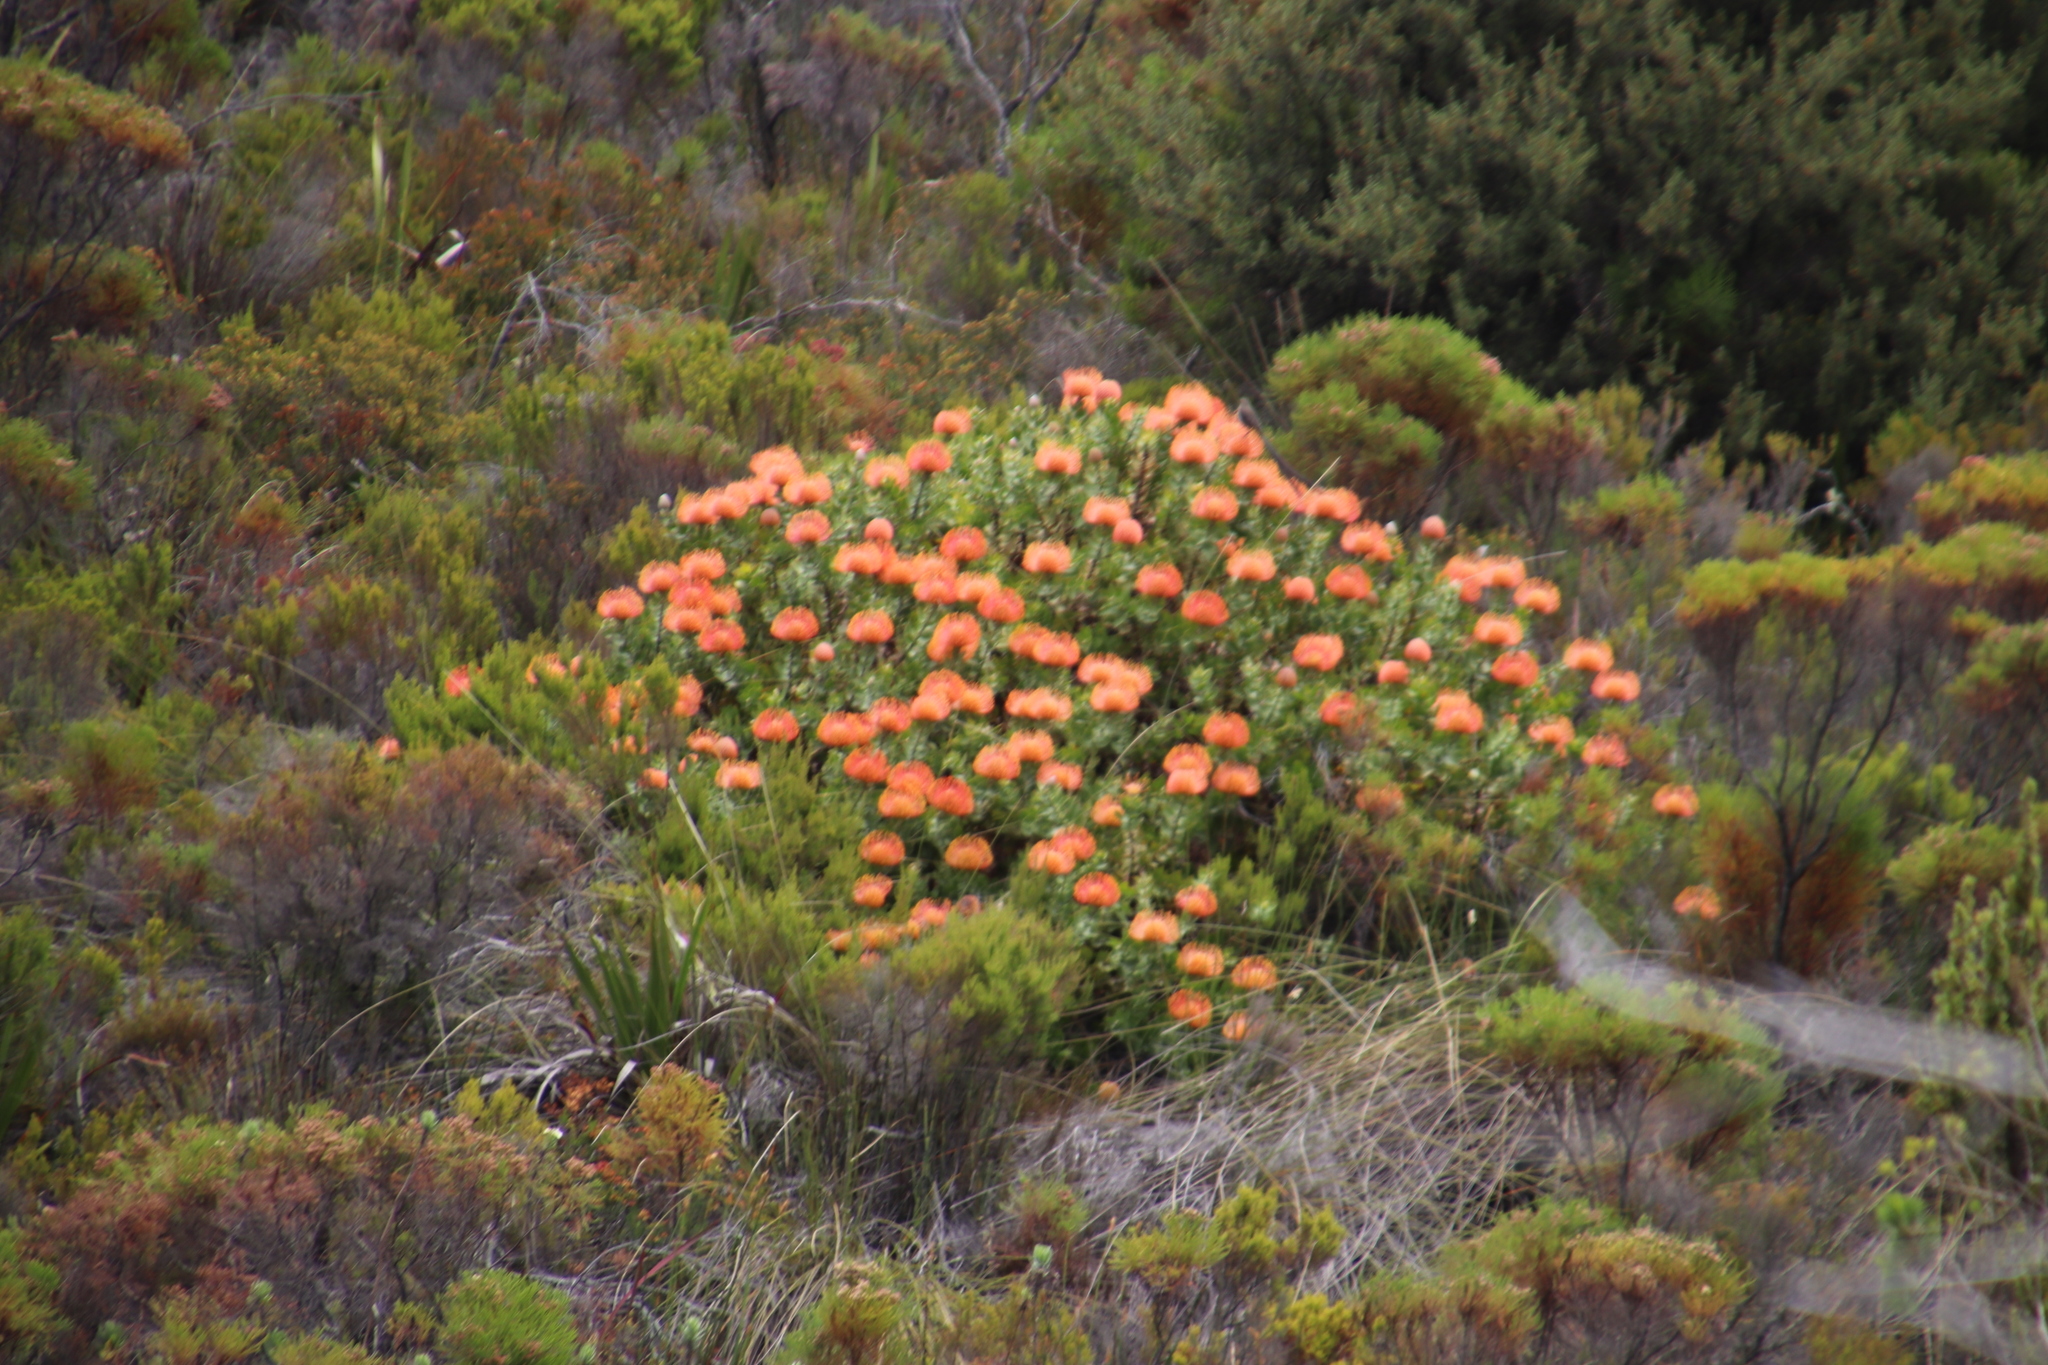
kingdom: Plantae
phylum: Tracheophyta
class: Magnoliopsida
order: Proteales
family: Proteaceae
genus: Leucospermum
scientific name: Leucospermum cordifolium
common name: Red pincushion-protea
